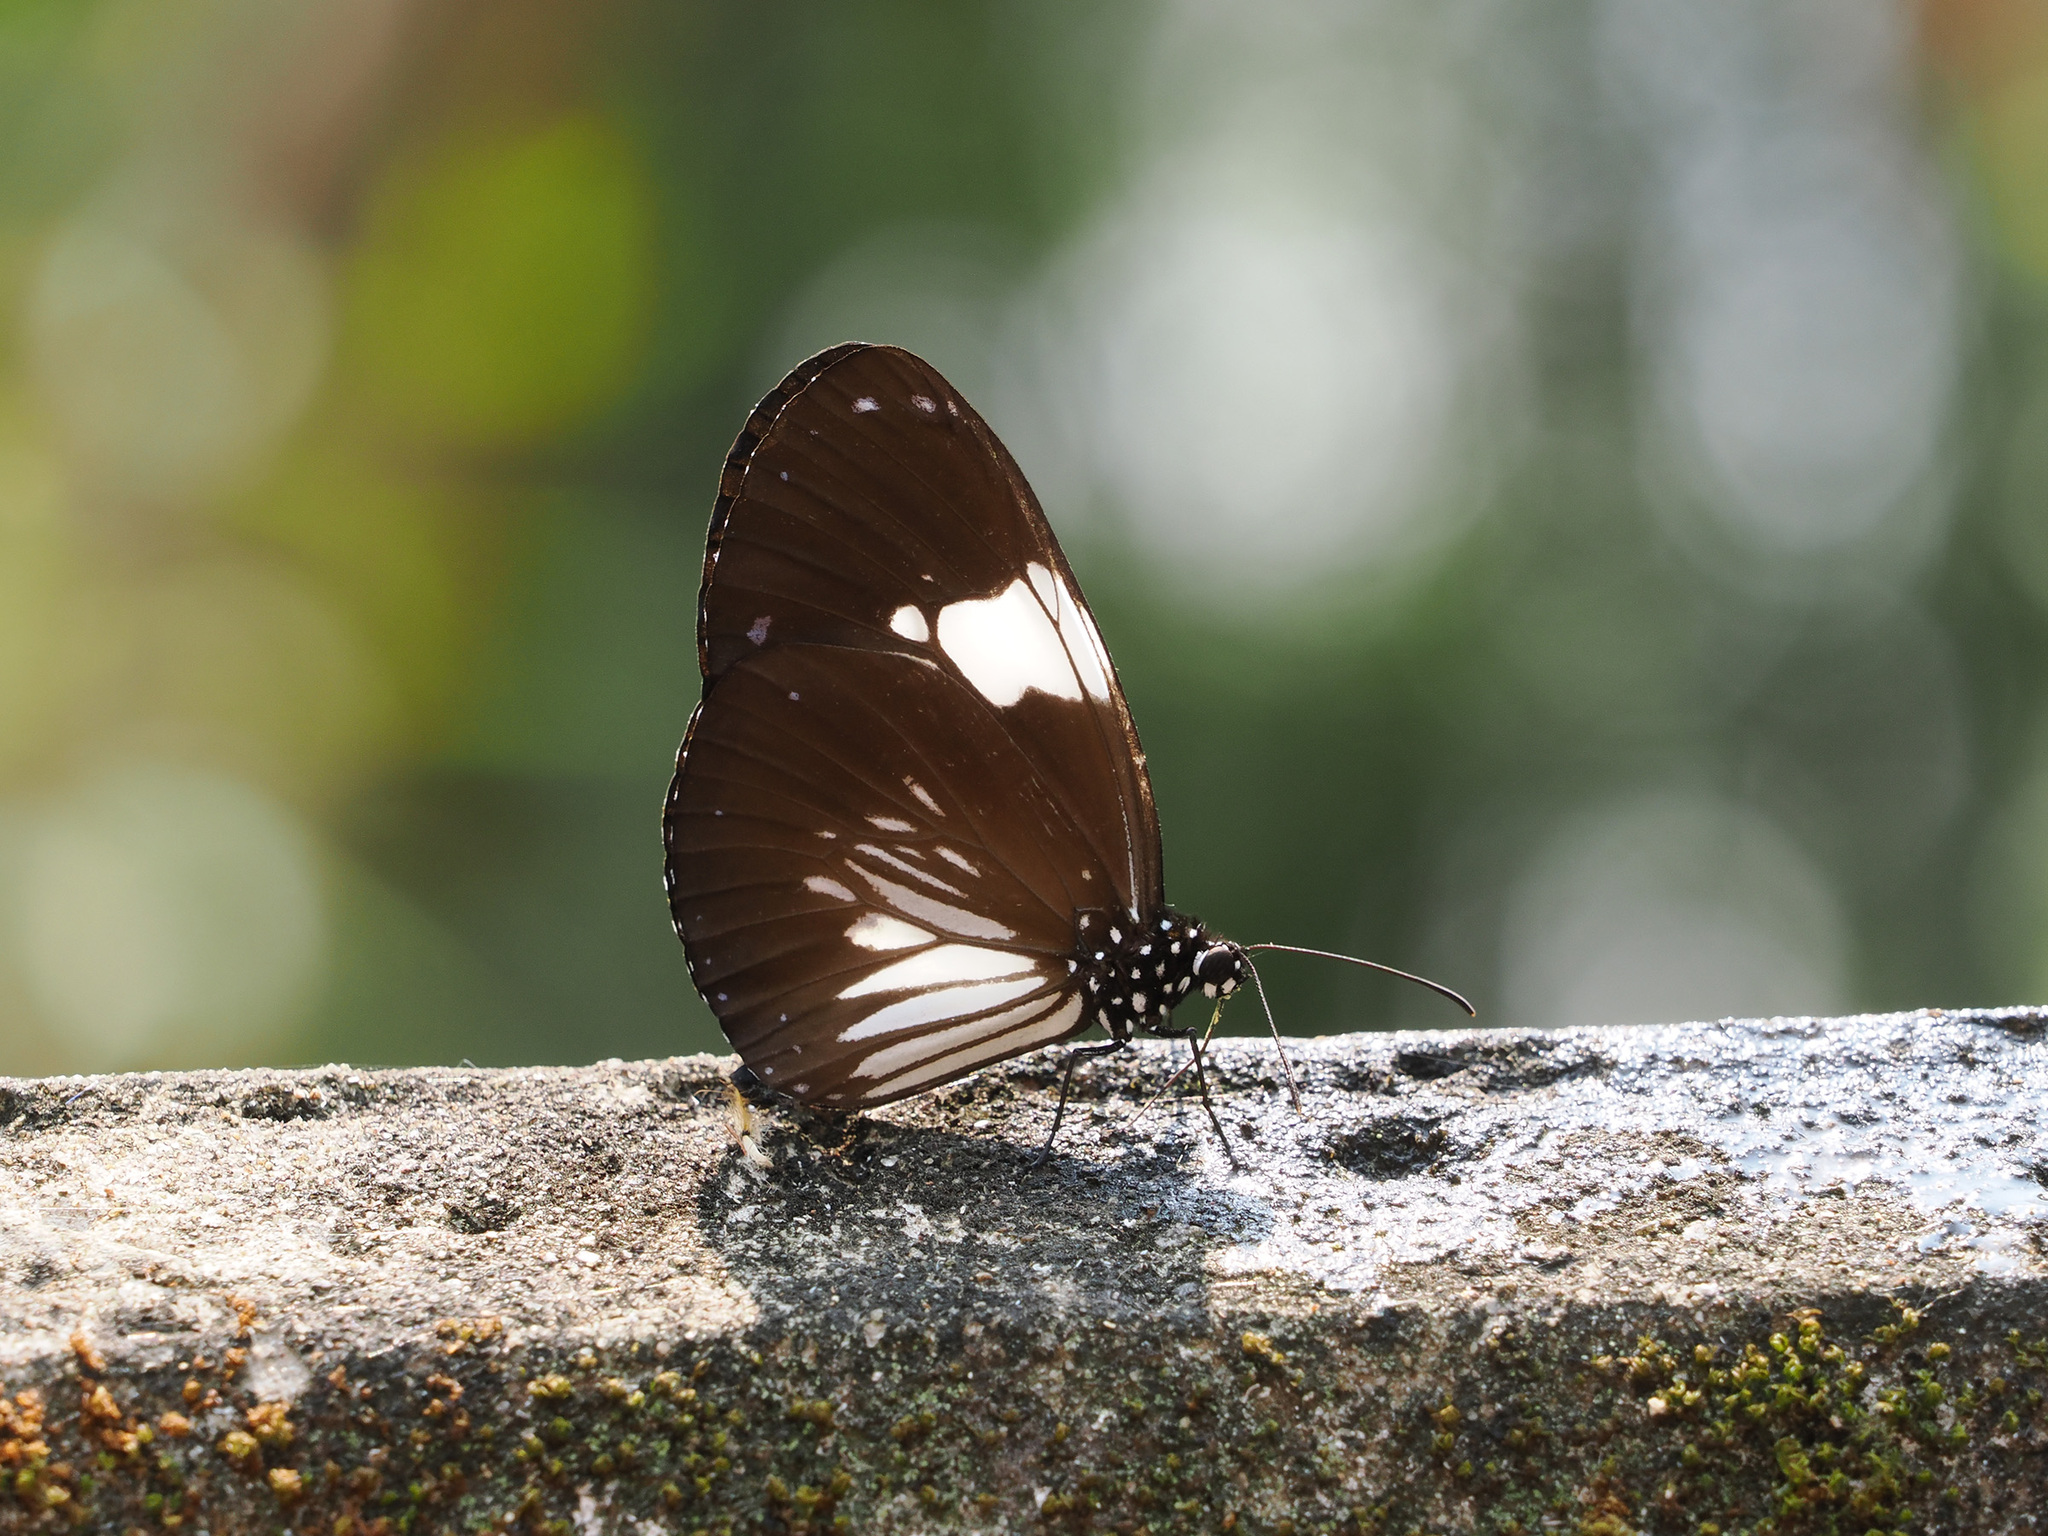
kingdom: Animalia
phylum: Arthropoda
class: Insecta
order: Lepidoptera
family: Nymphalidae
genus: Euploea
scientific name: Euploea radamanthus
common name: Magpie crow butterfly
